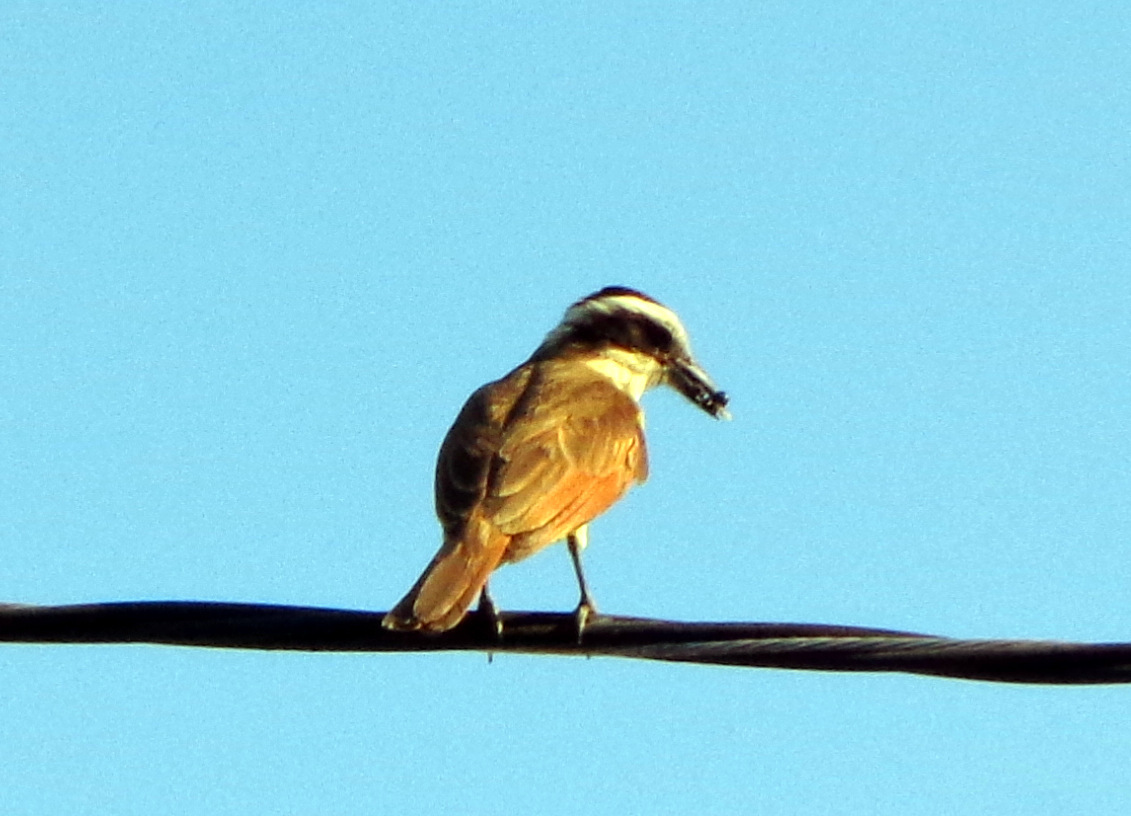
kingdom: Animalia
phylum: Chordata
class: Aves
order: Passeriformes
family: Tyrannidae
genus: Pitangus
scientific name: Pitangus sulphuratus
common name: Great kiskadee
